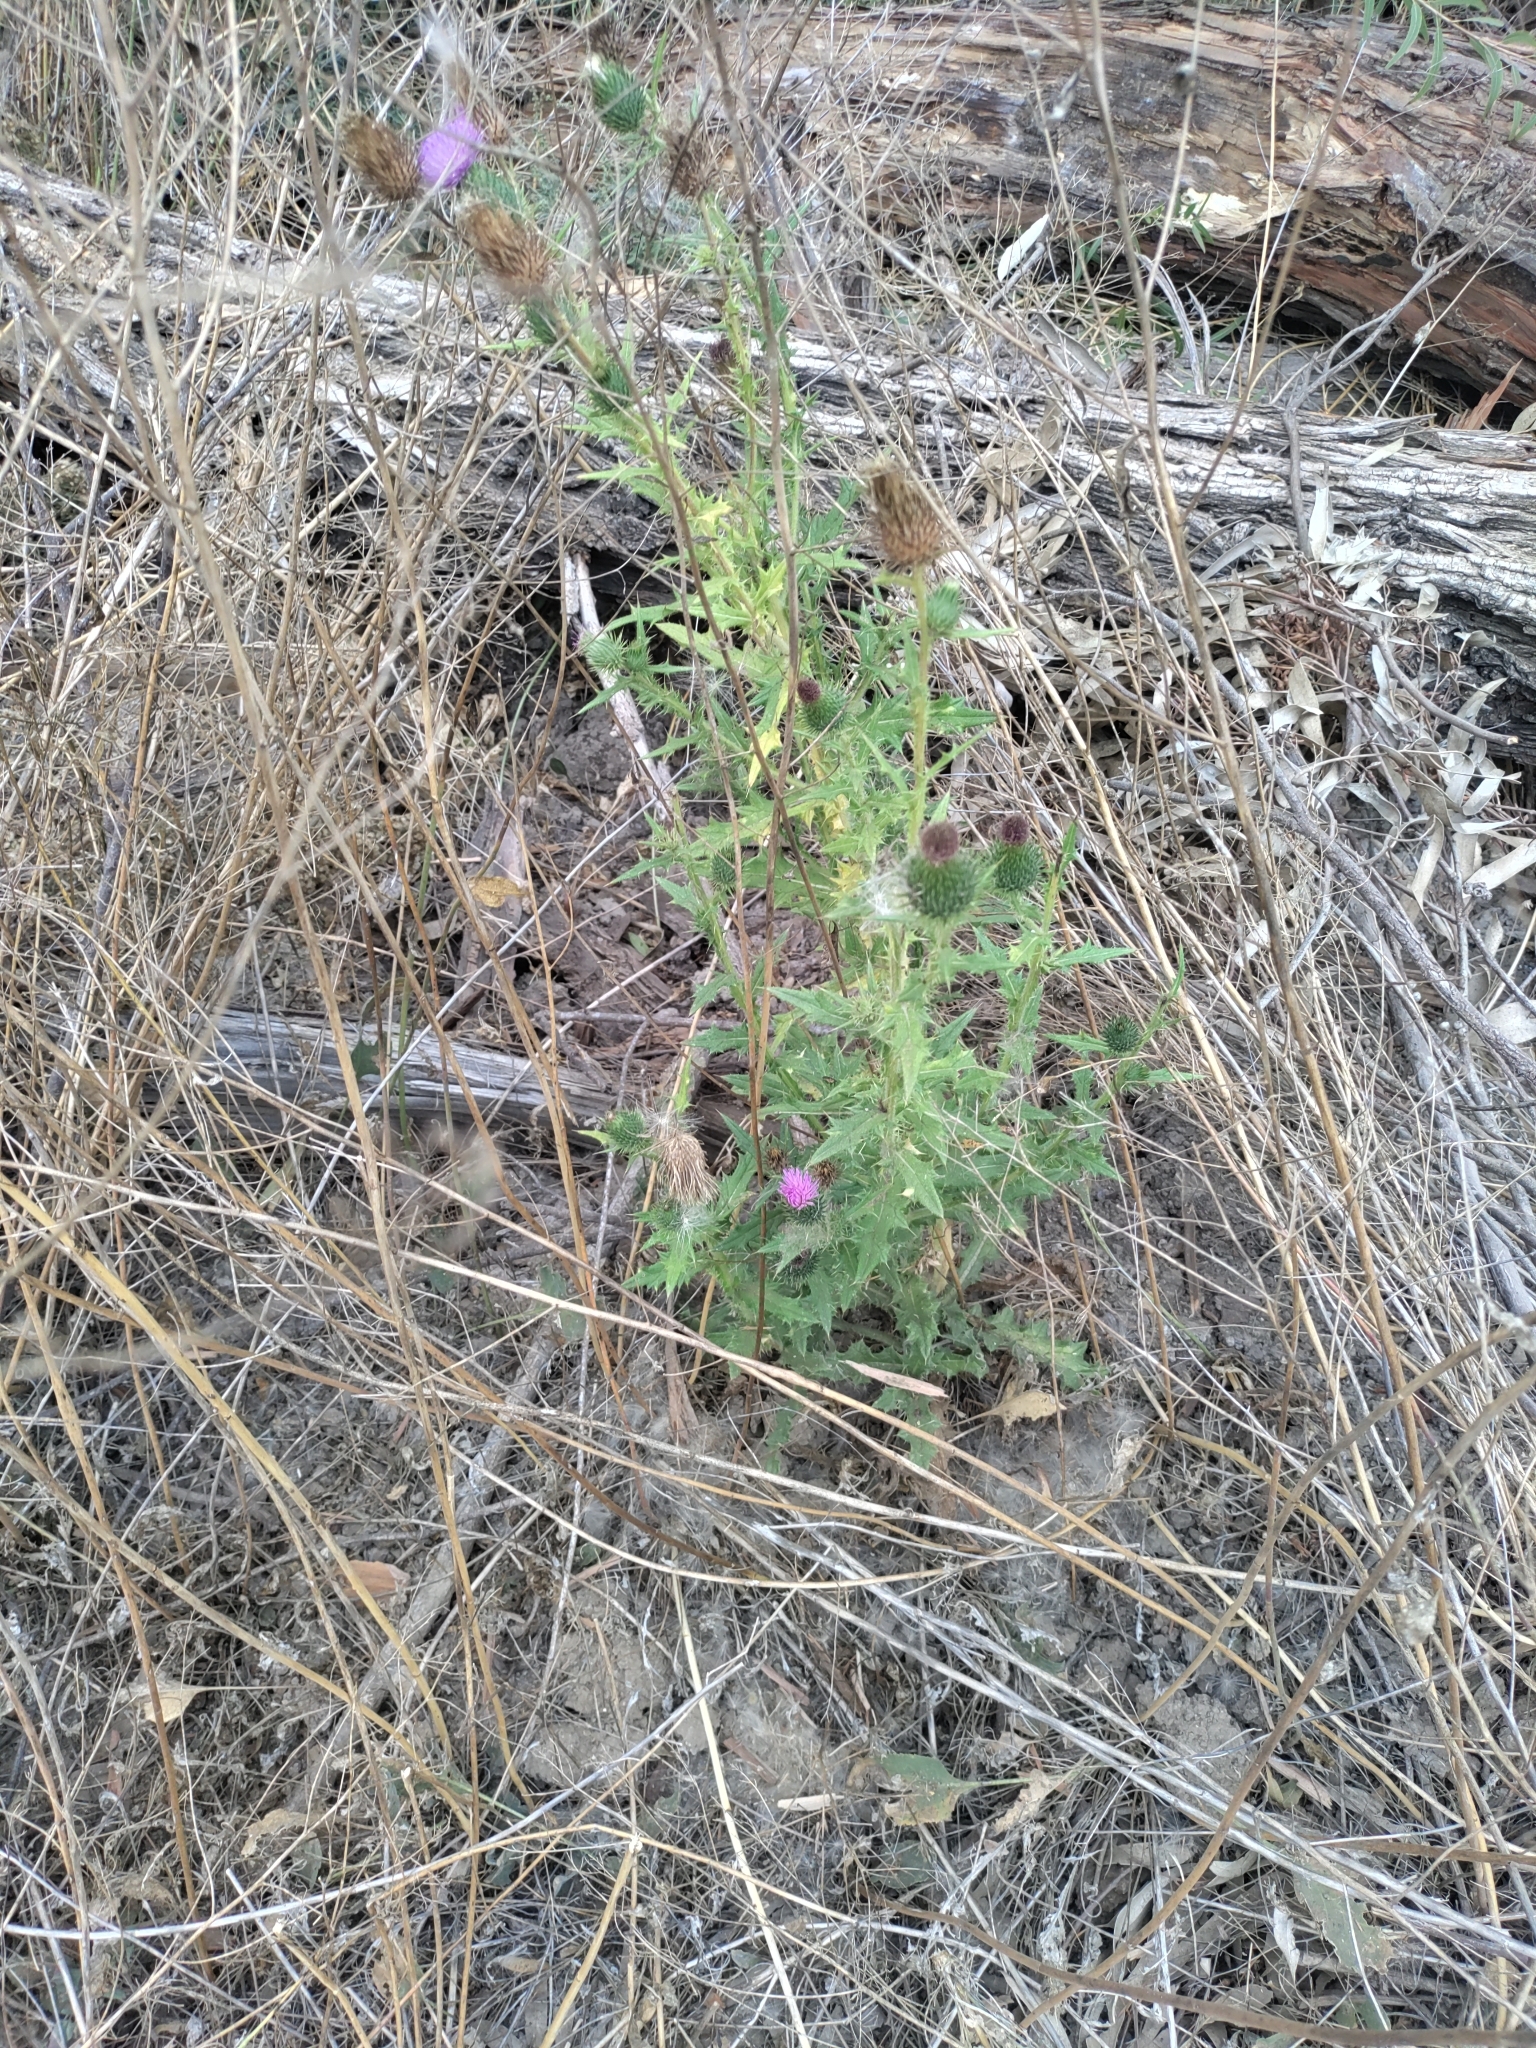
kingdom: Plantae
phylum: Tracheophyta
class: Magnoliopsida
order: Asterales
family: Asteraceae
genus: Cirsium
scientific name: Cirsium vulgare
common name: Bull thistle
